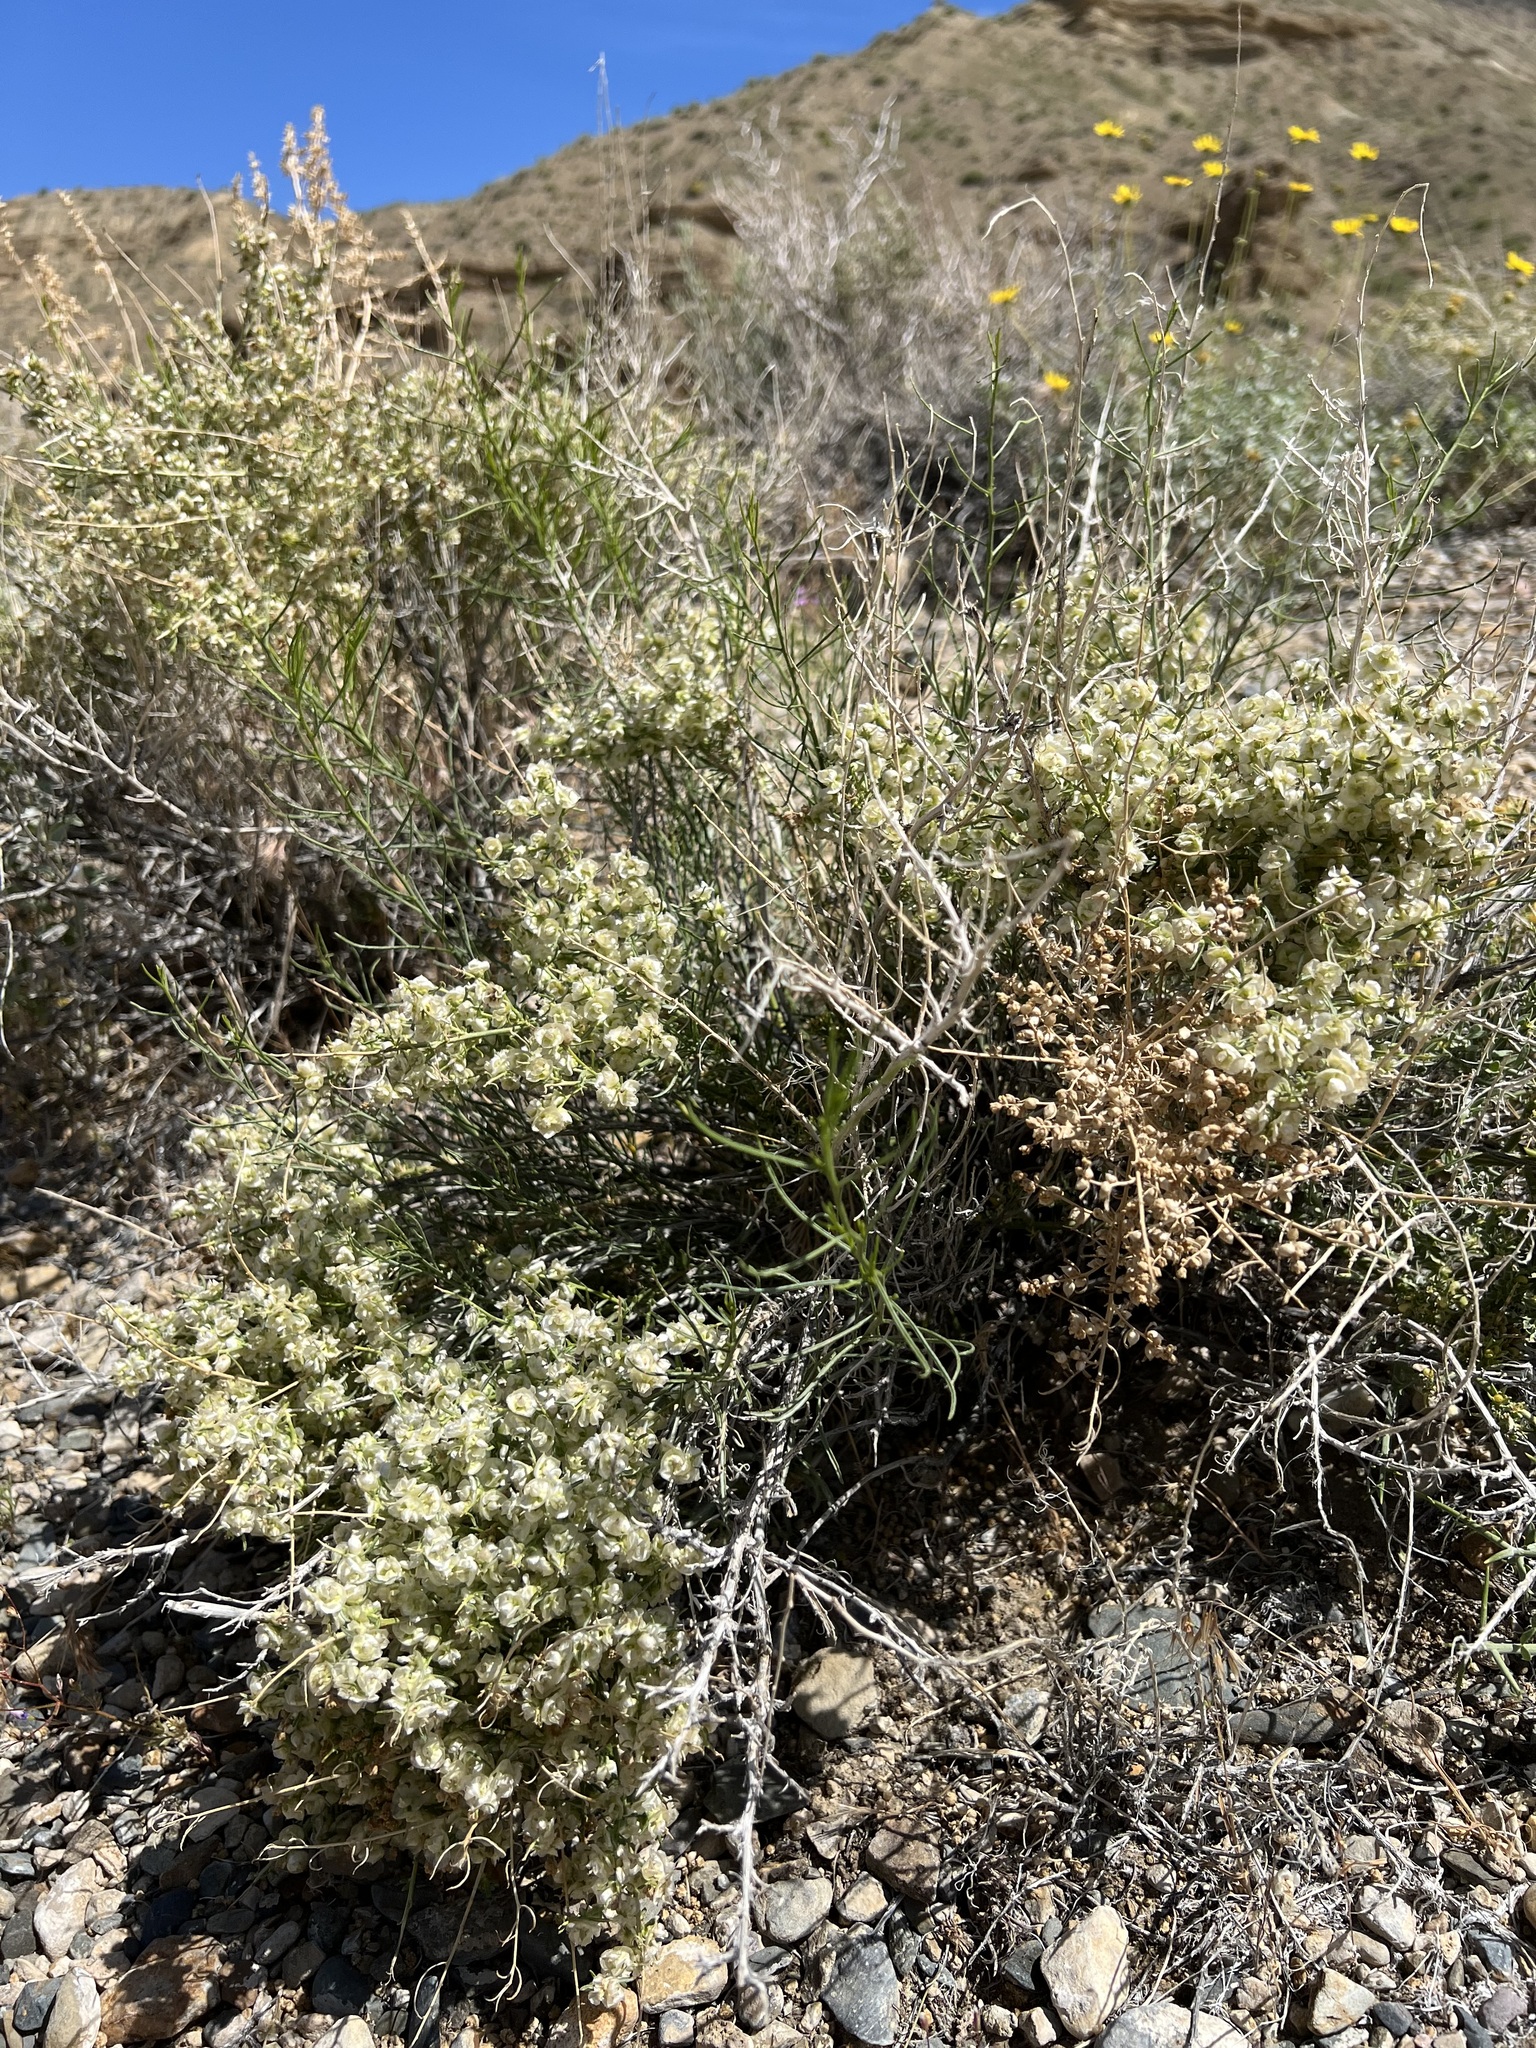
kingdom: Plantae
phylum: Tracheophyta
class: Magnoliopsida
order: Asterales
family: Asteraceae
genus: Ambrosia
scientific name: Ambrosia salsola
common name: Burrobrush
